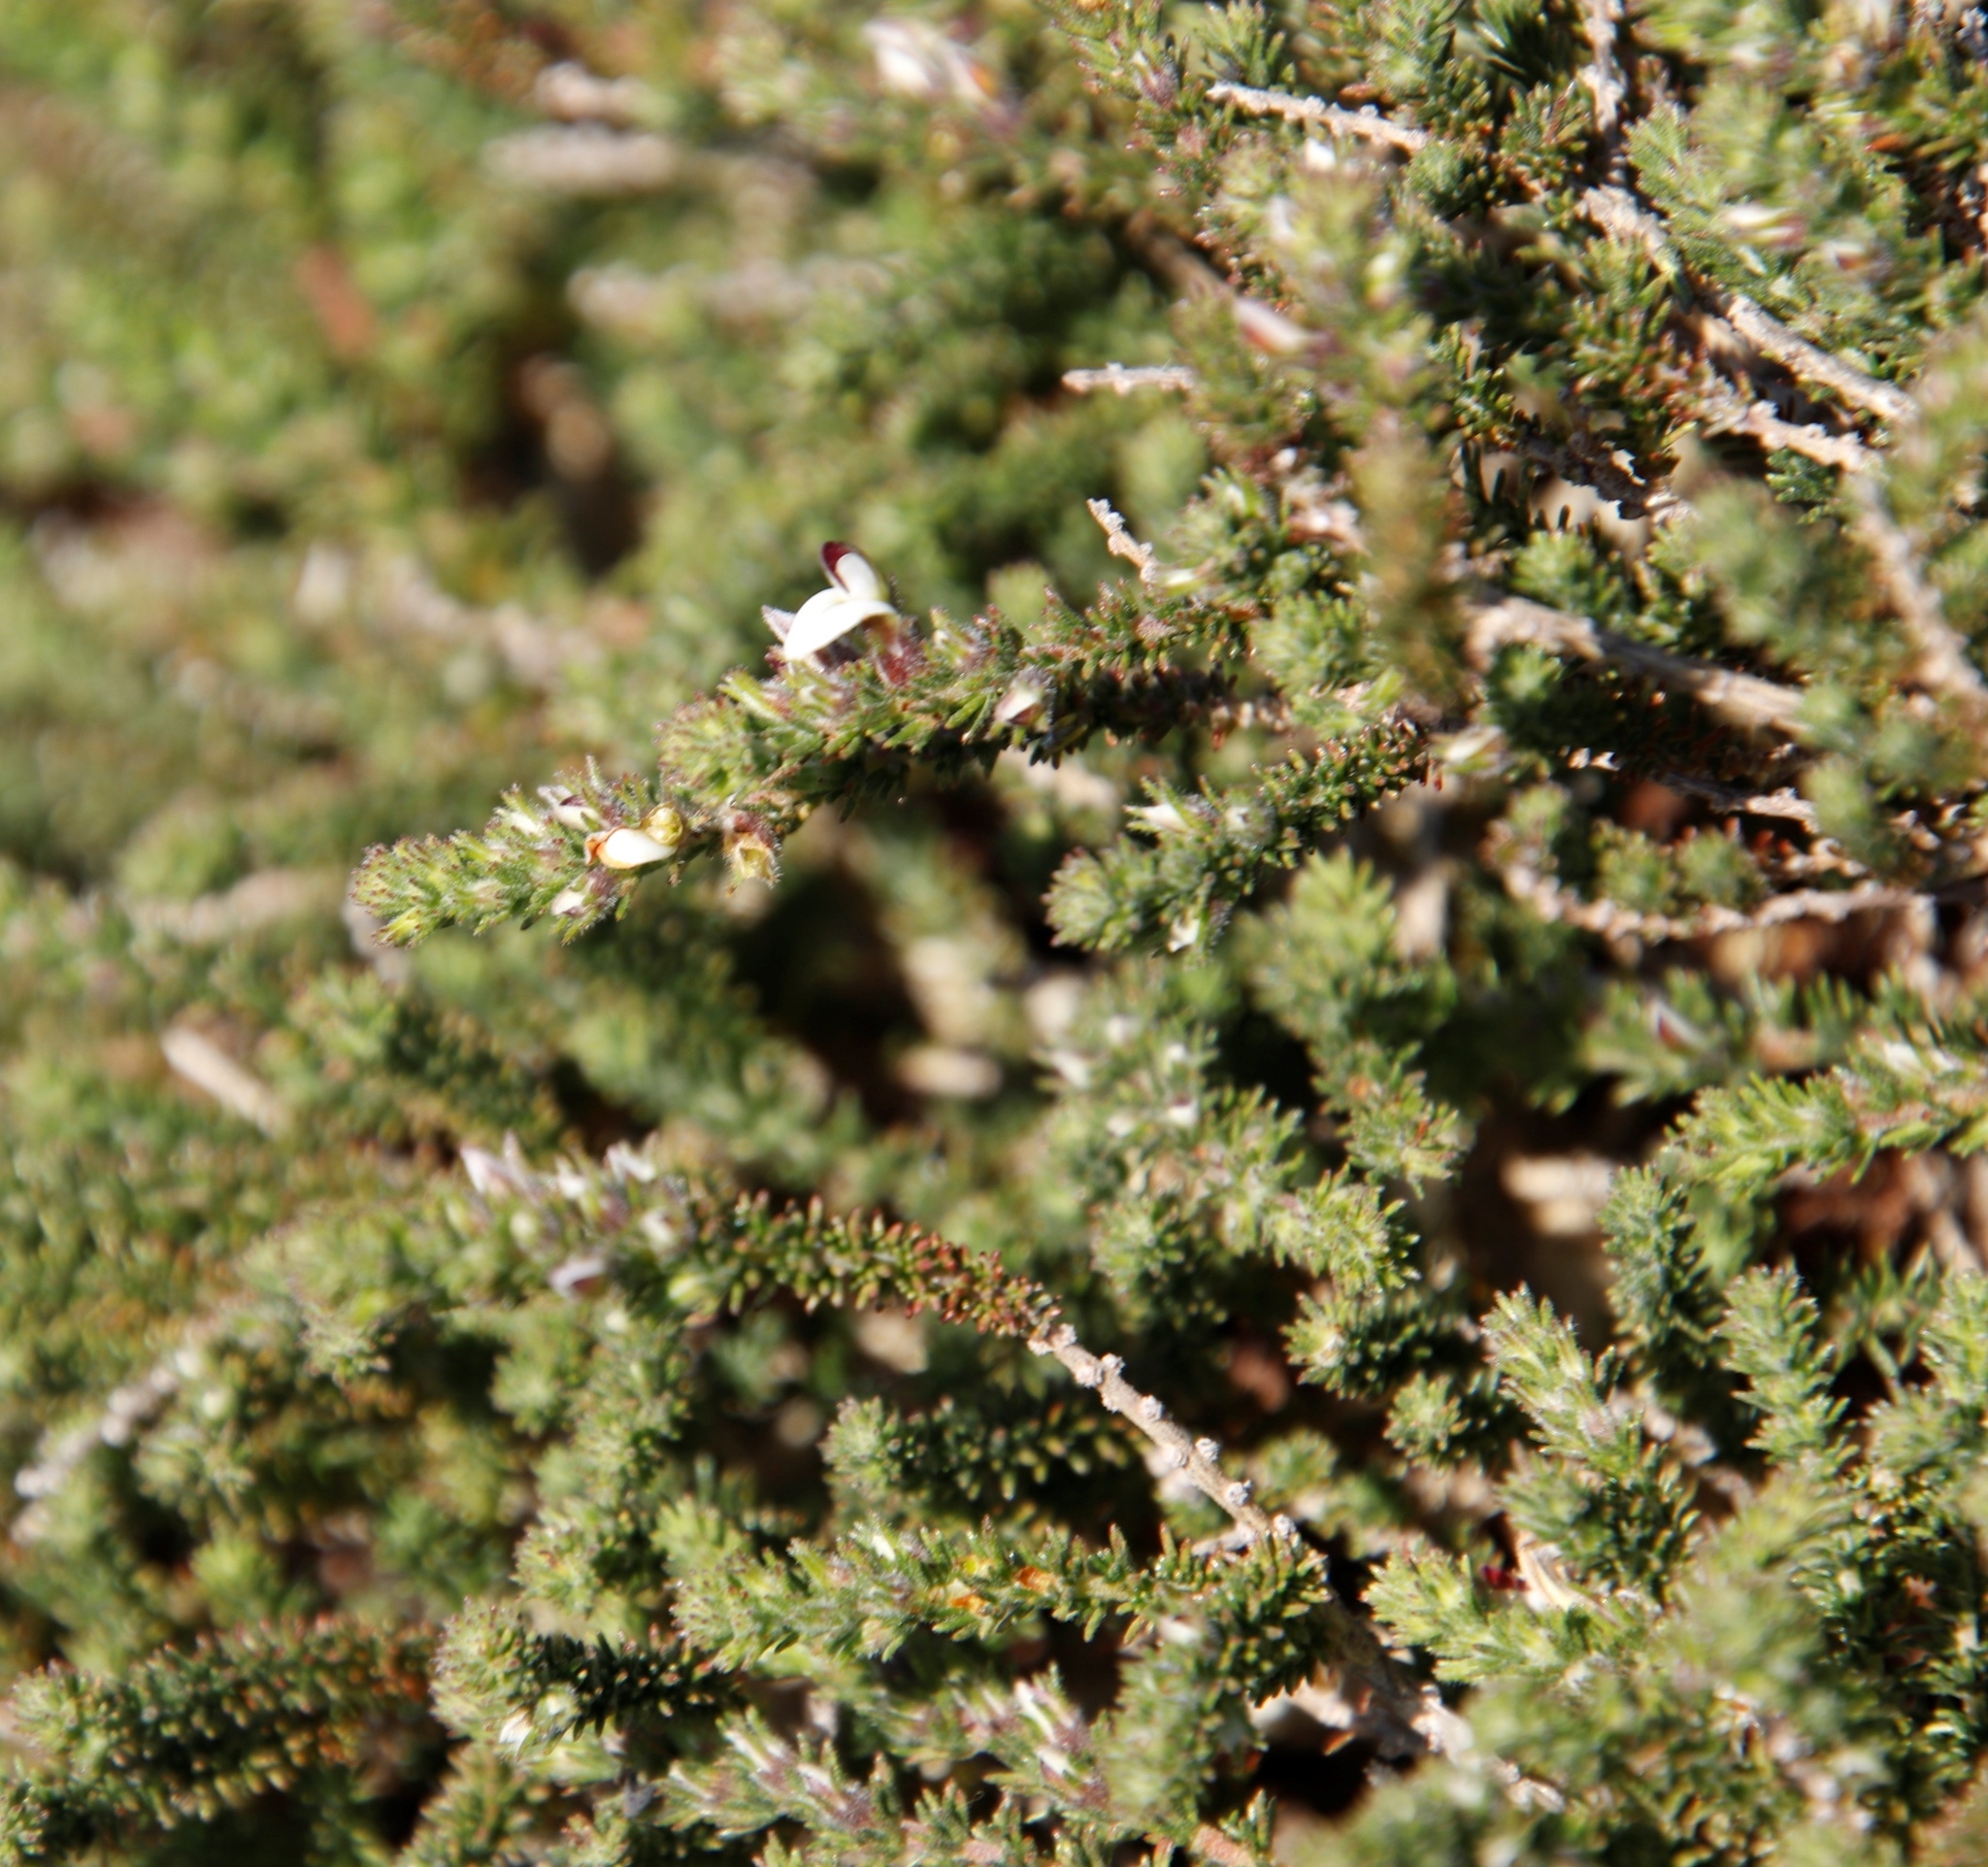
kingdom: Plantae
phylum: Tracheophyta
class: Magnoliopsida
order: Fabales
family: Fabaceae
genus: Aspalathus
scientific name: Aspalathus hispida
